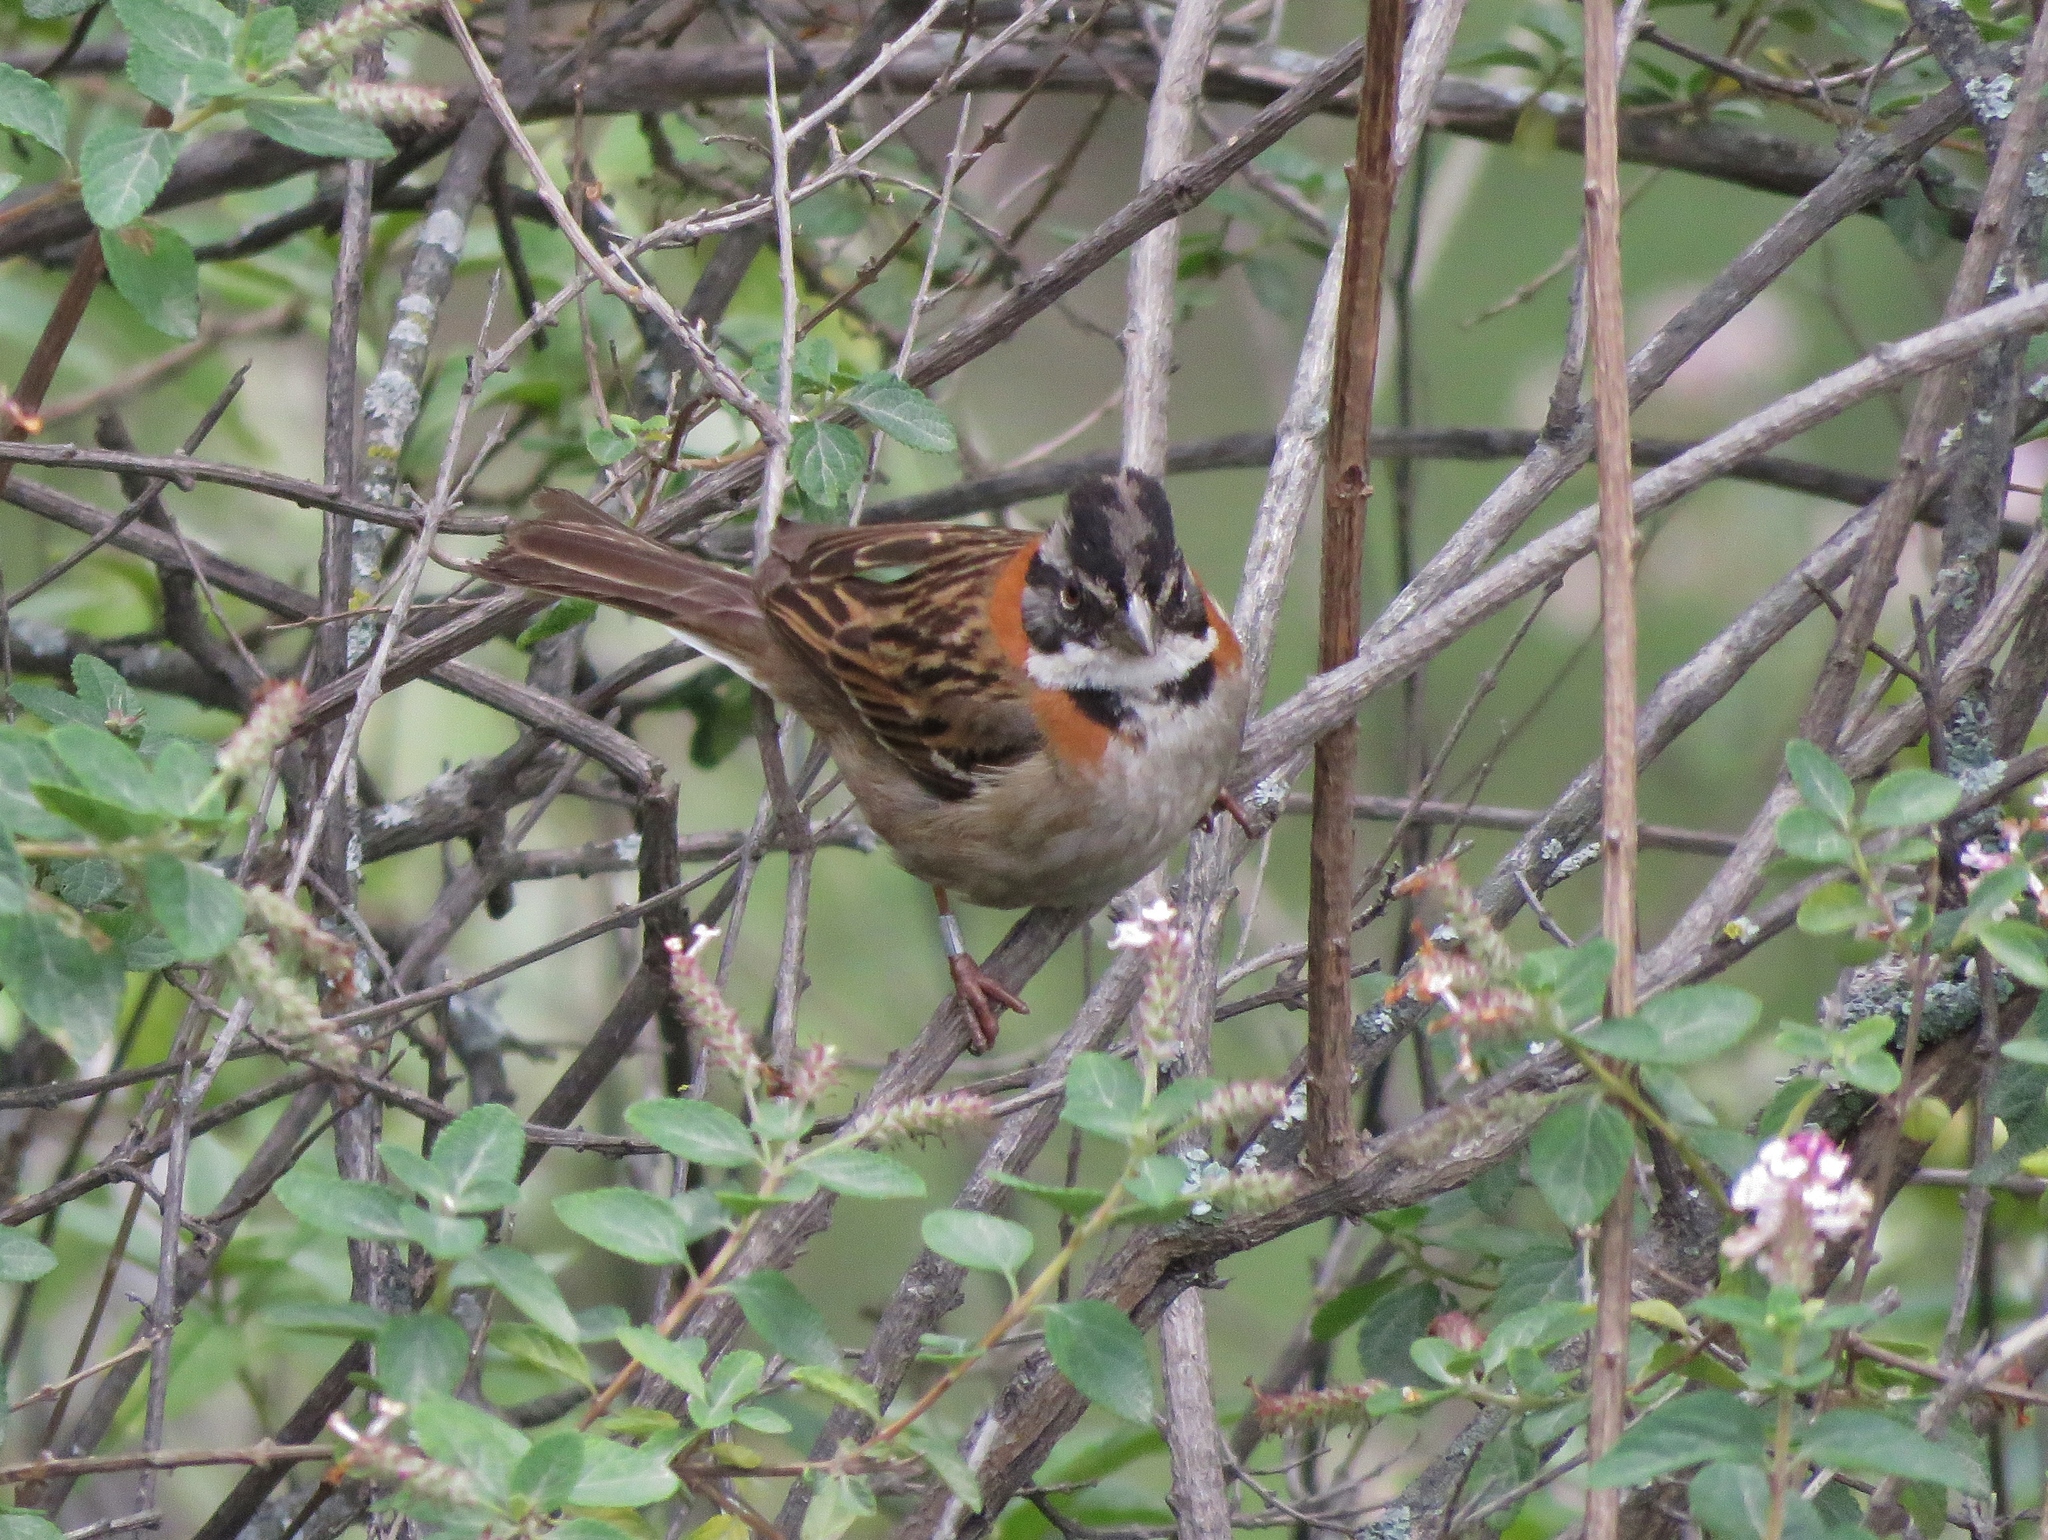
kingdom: Animalia
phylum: Chordata
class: Aves
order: Passeriformes
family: Passerellidae
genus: Zonotrichia
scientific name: Zonotrichia capensis
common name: Rufous-collared sparrow
